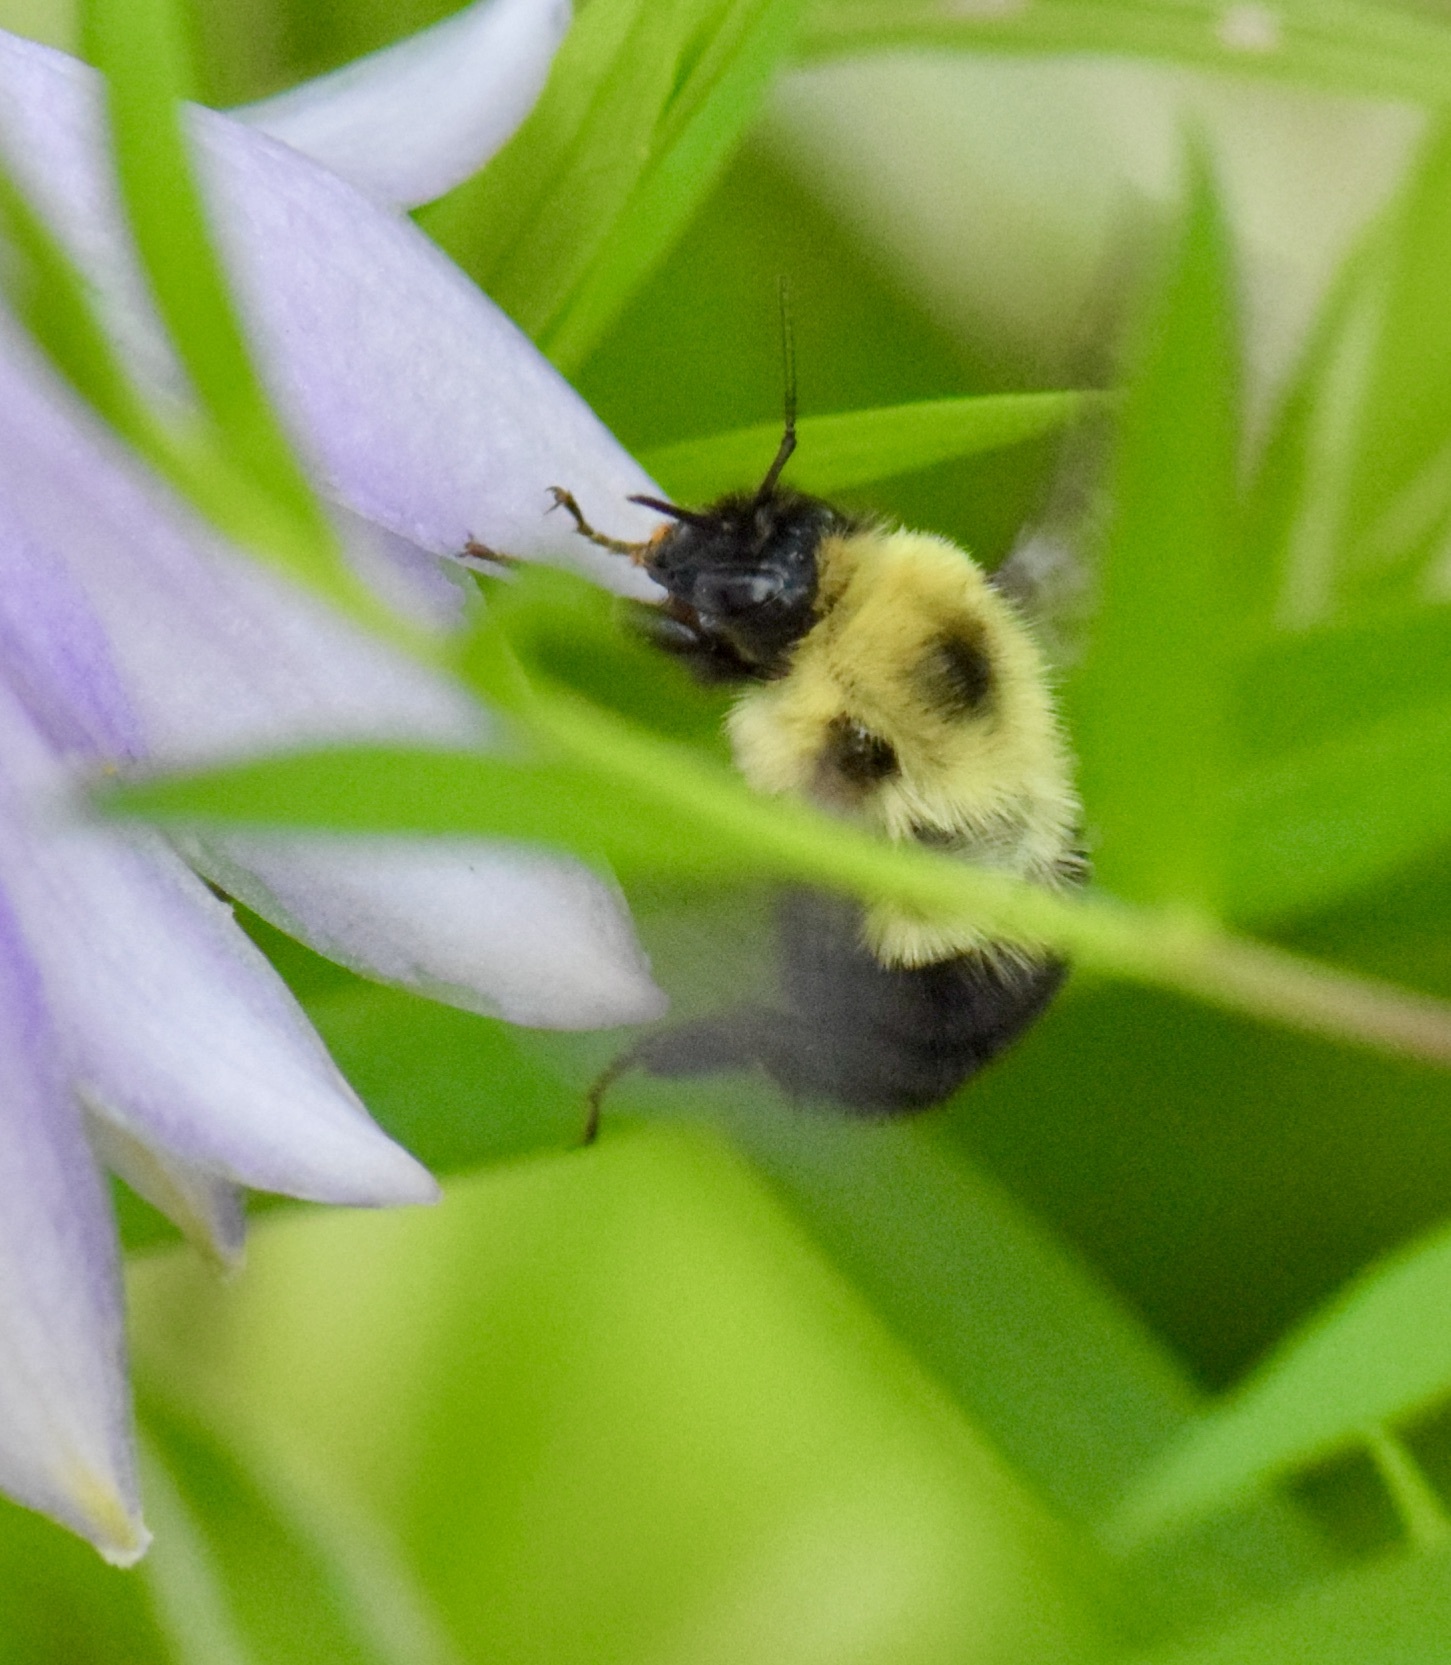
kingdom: Animalia
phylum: Arthropoda
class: Insecta
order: Hymenoptera
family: Apidae
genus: Bombus
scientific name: Bombus bimaculatus
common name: Two-spotted bumble bee
